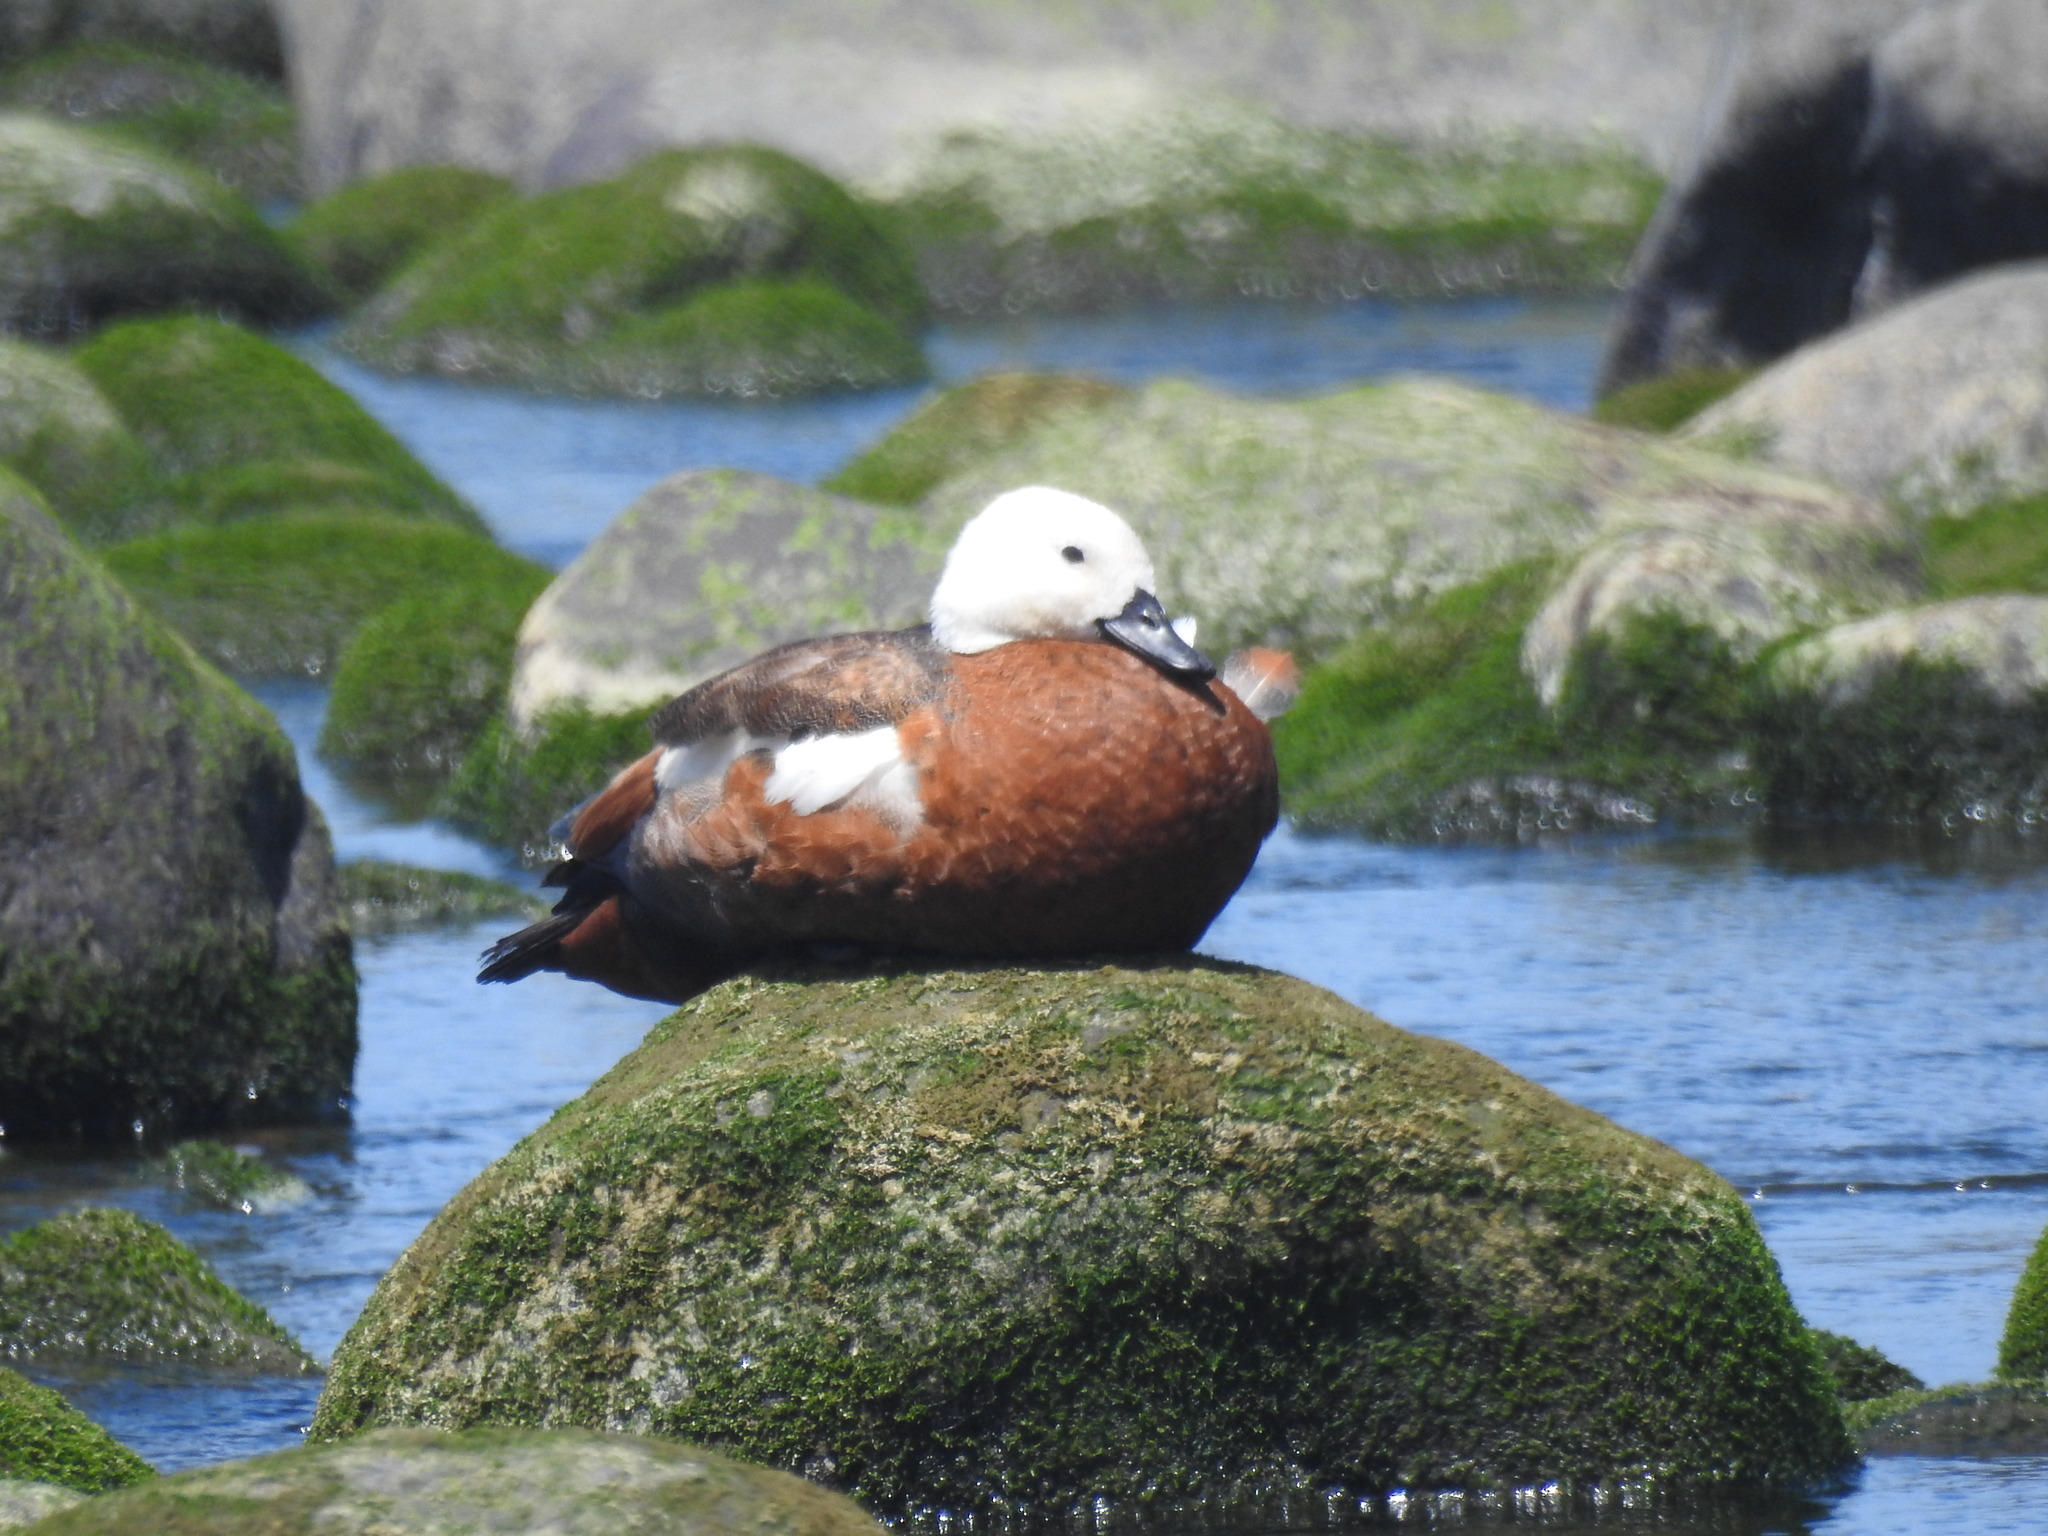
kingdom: Animalia
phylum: Chordata
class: Aves
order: Anseriformes
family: Anatidae
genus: Tadorna
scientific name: Tadorna variegata
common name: Paradise shelduck
